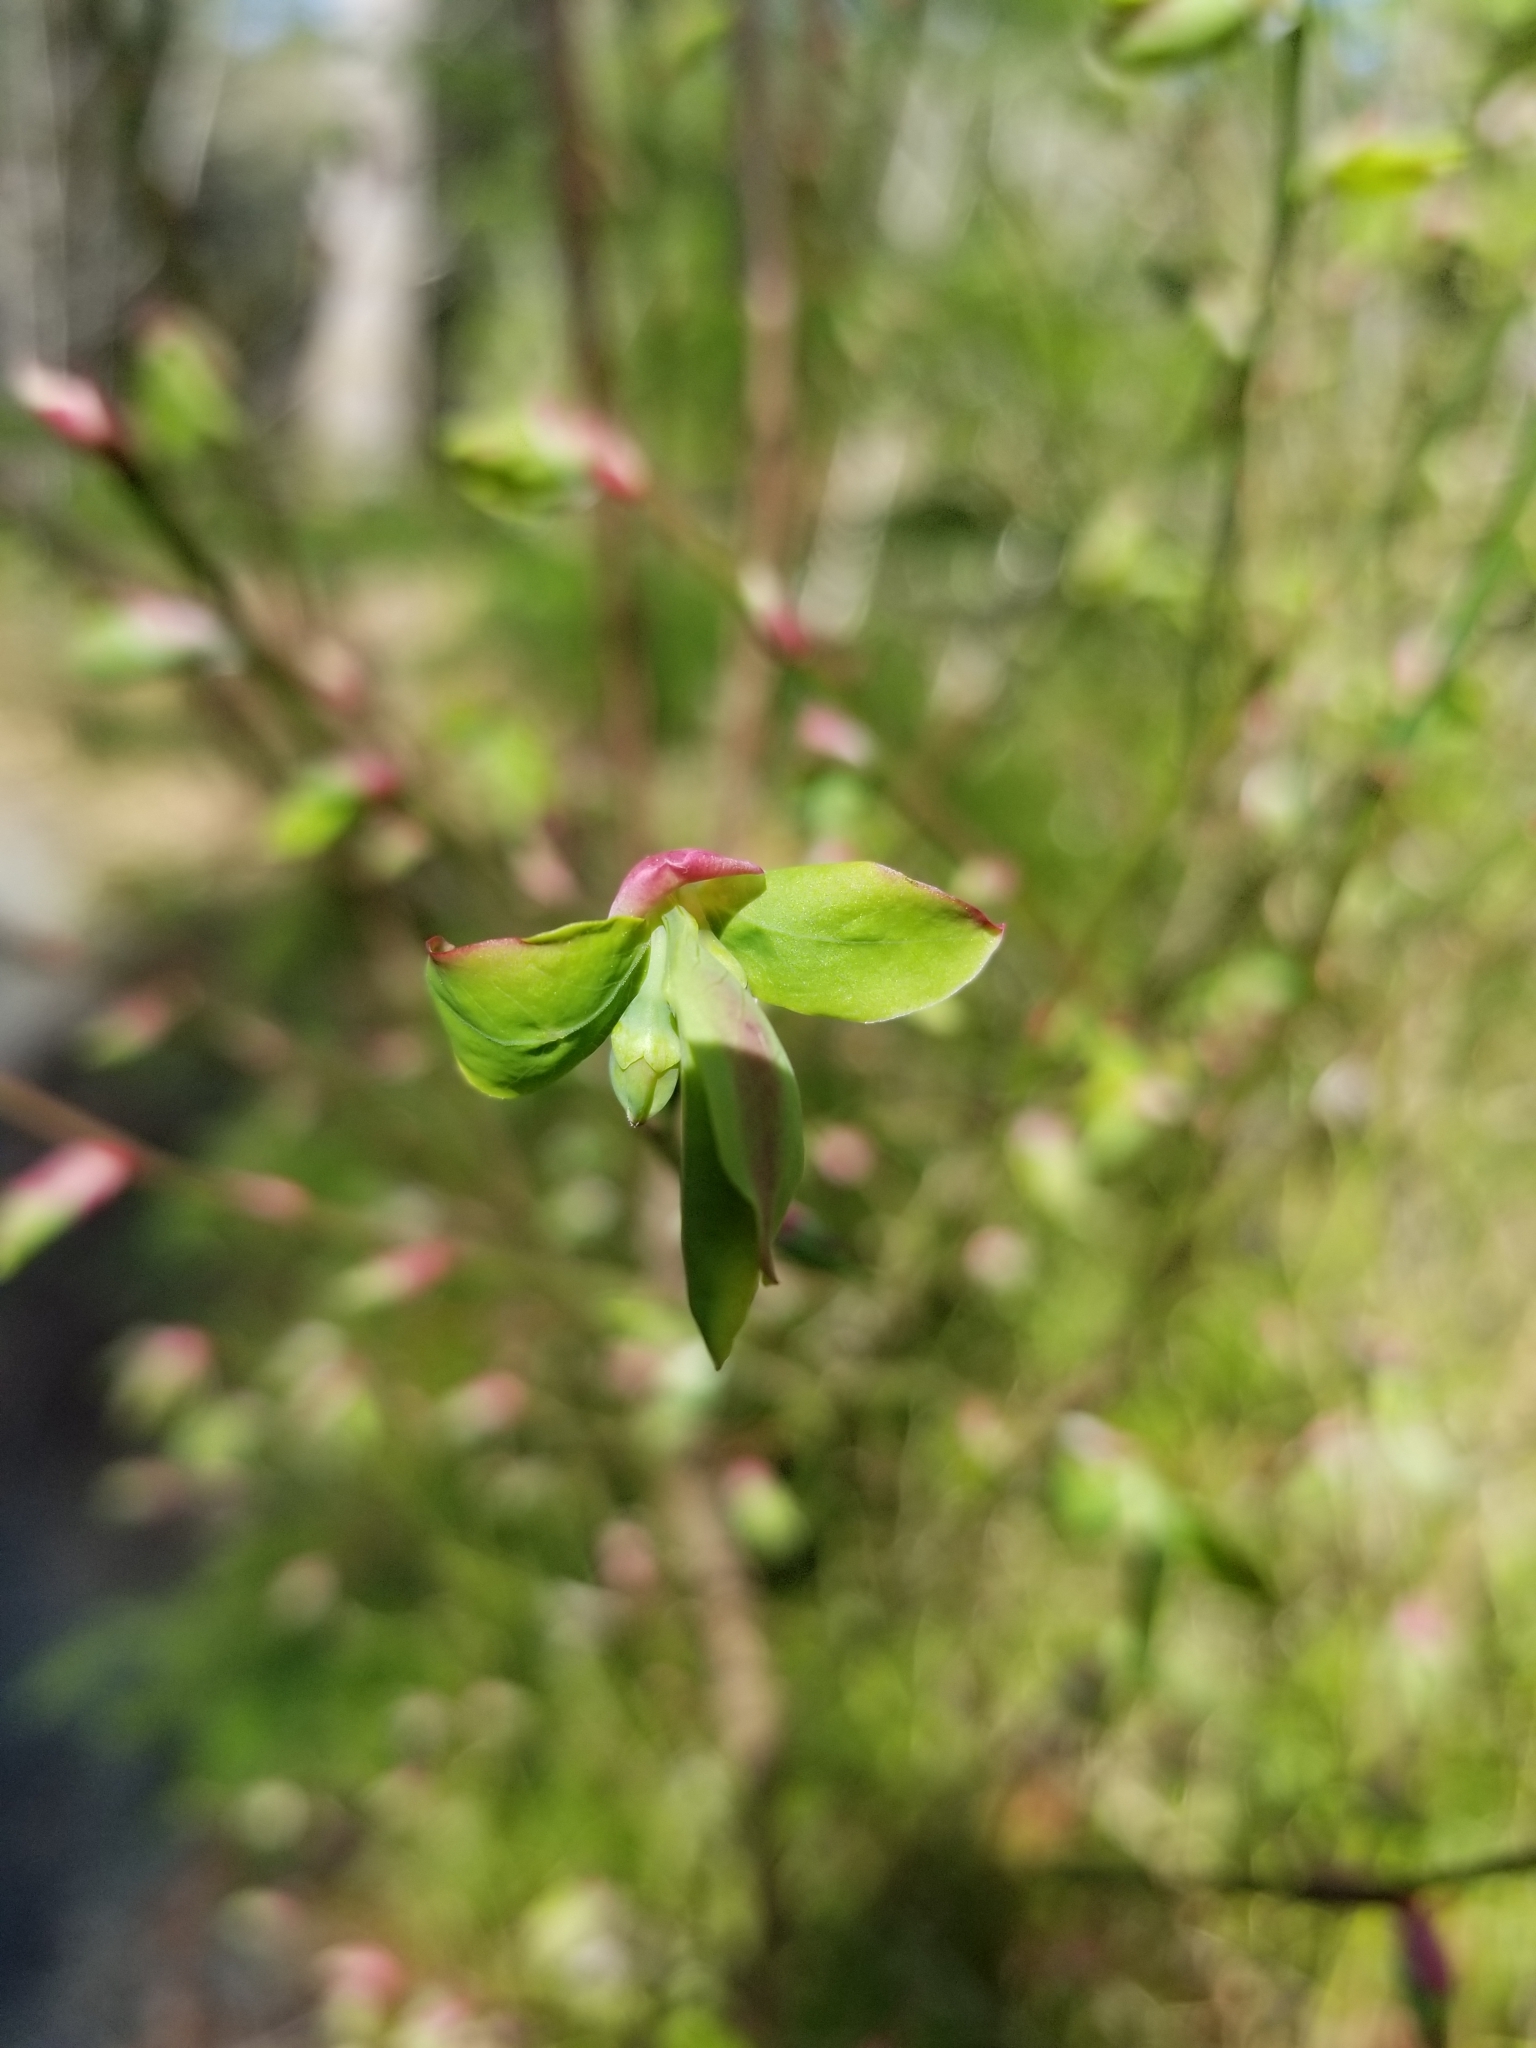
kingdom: Plantae
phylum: Tracheophyta
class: Magnoliopsida
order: Ericales
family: Ericaceae
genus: Vaccinium
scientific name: Vaccinium parvifolium
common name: Red-huckleberry
